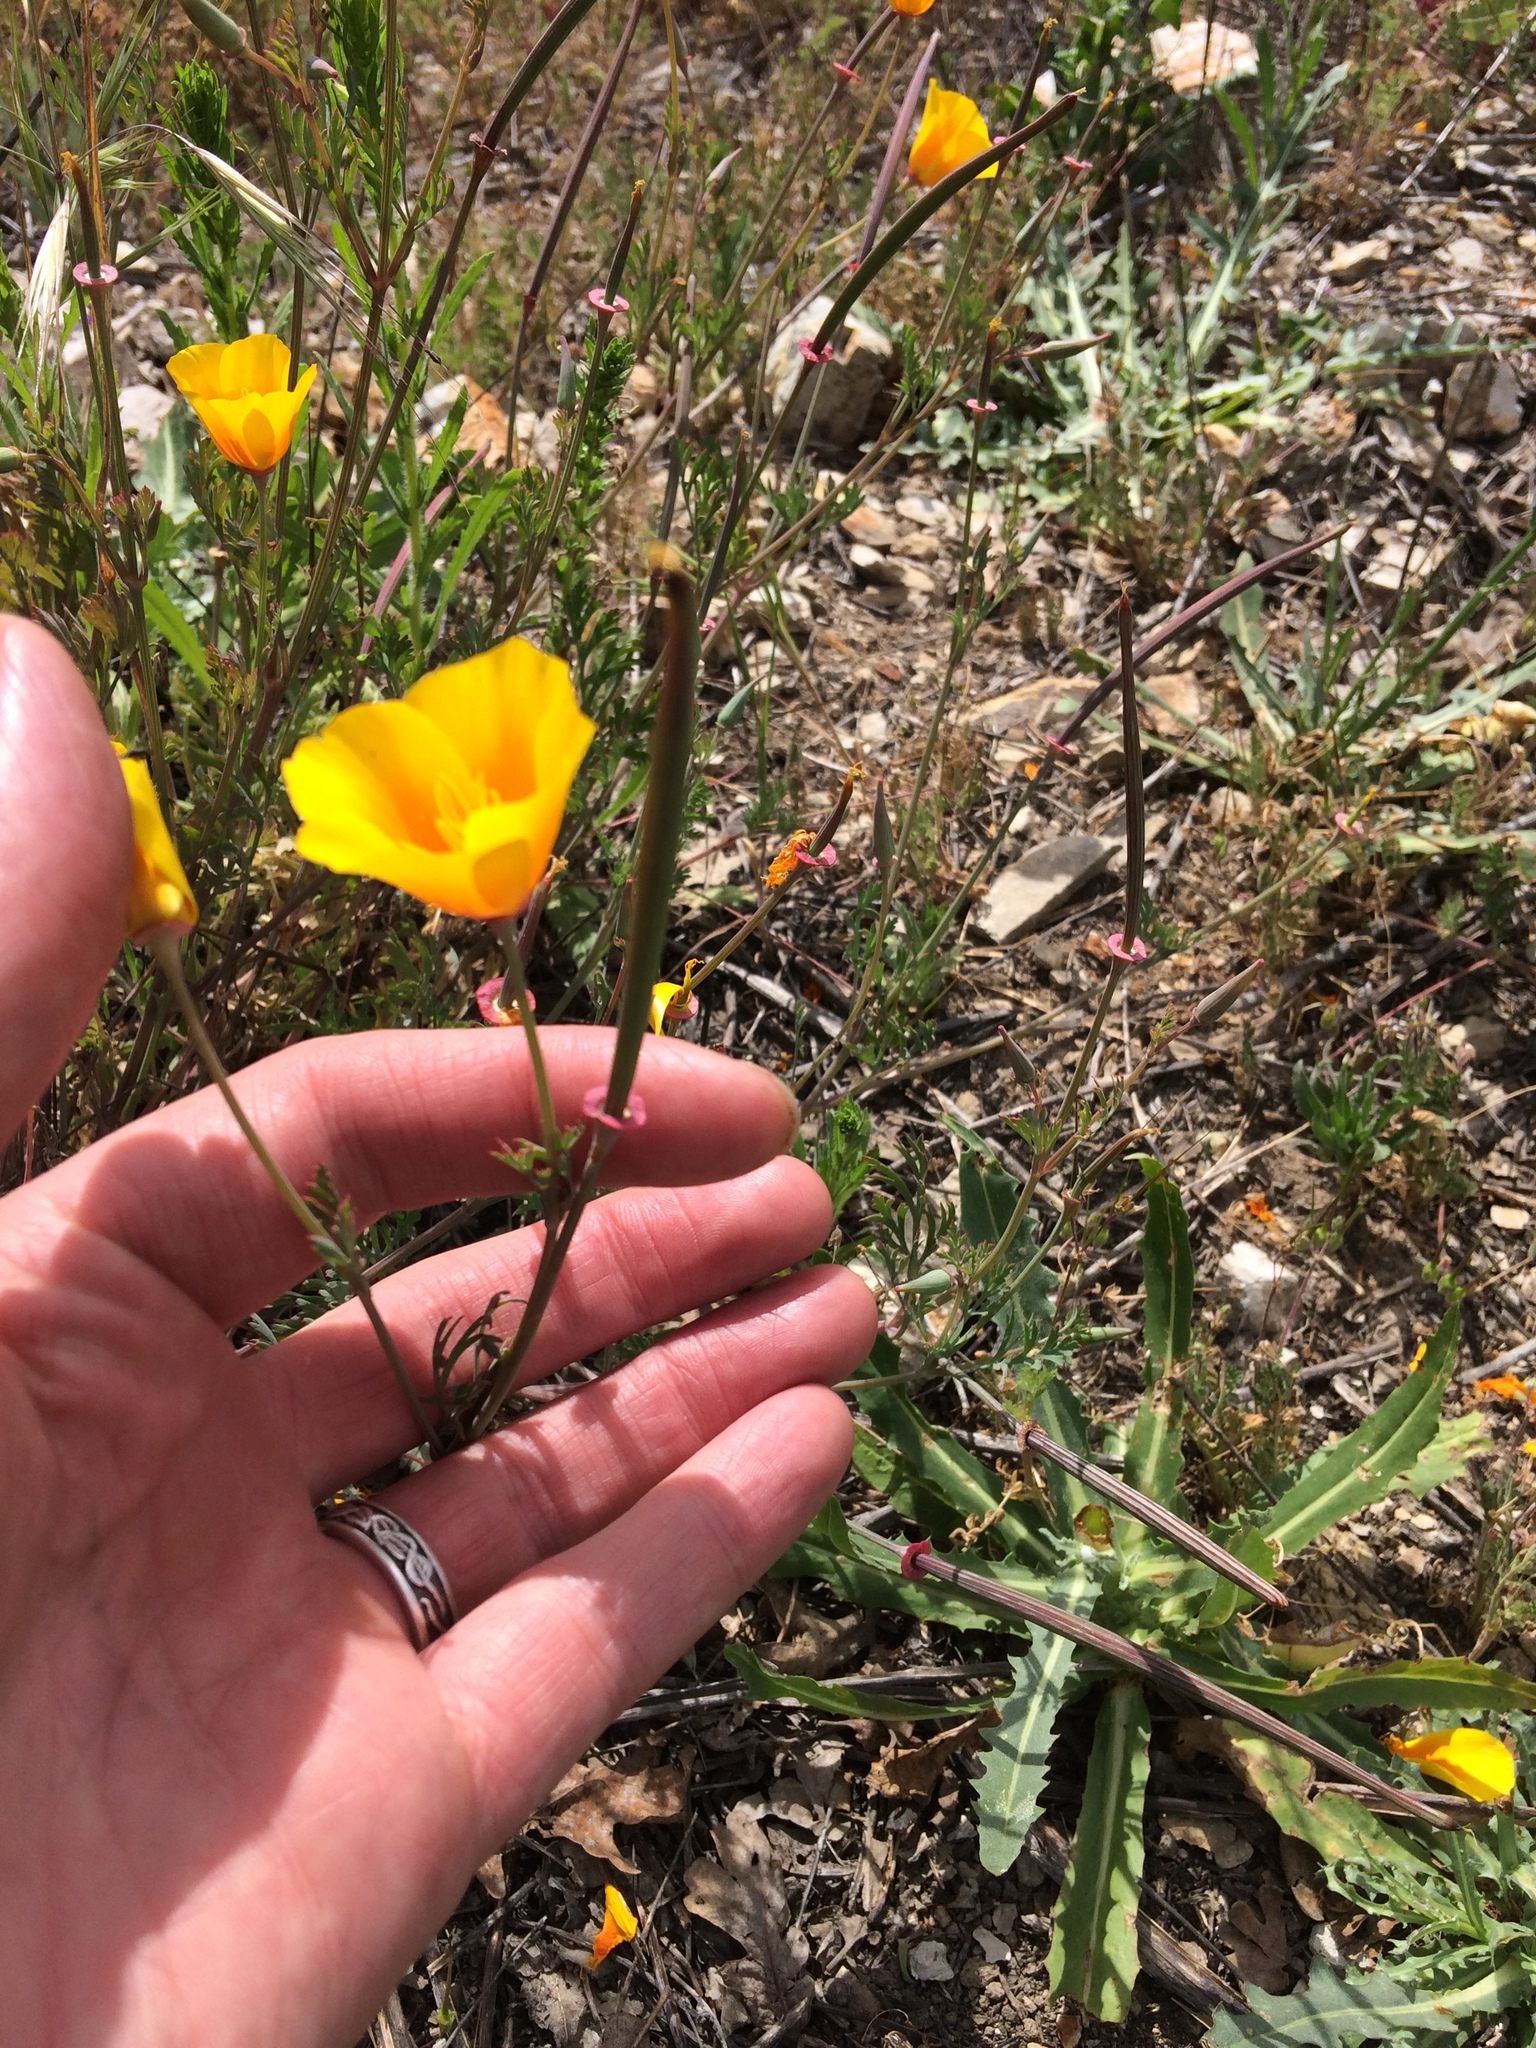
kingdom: Plantae
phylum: Tracheophyta
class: Magnoliopsida
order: Ranunculales
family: Papaveraceae
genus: Eschscholzia
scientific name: Eschscholzia californica
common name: California poppy
